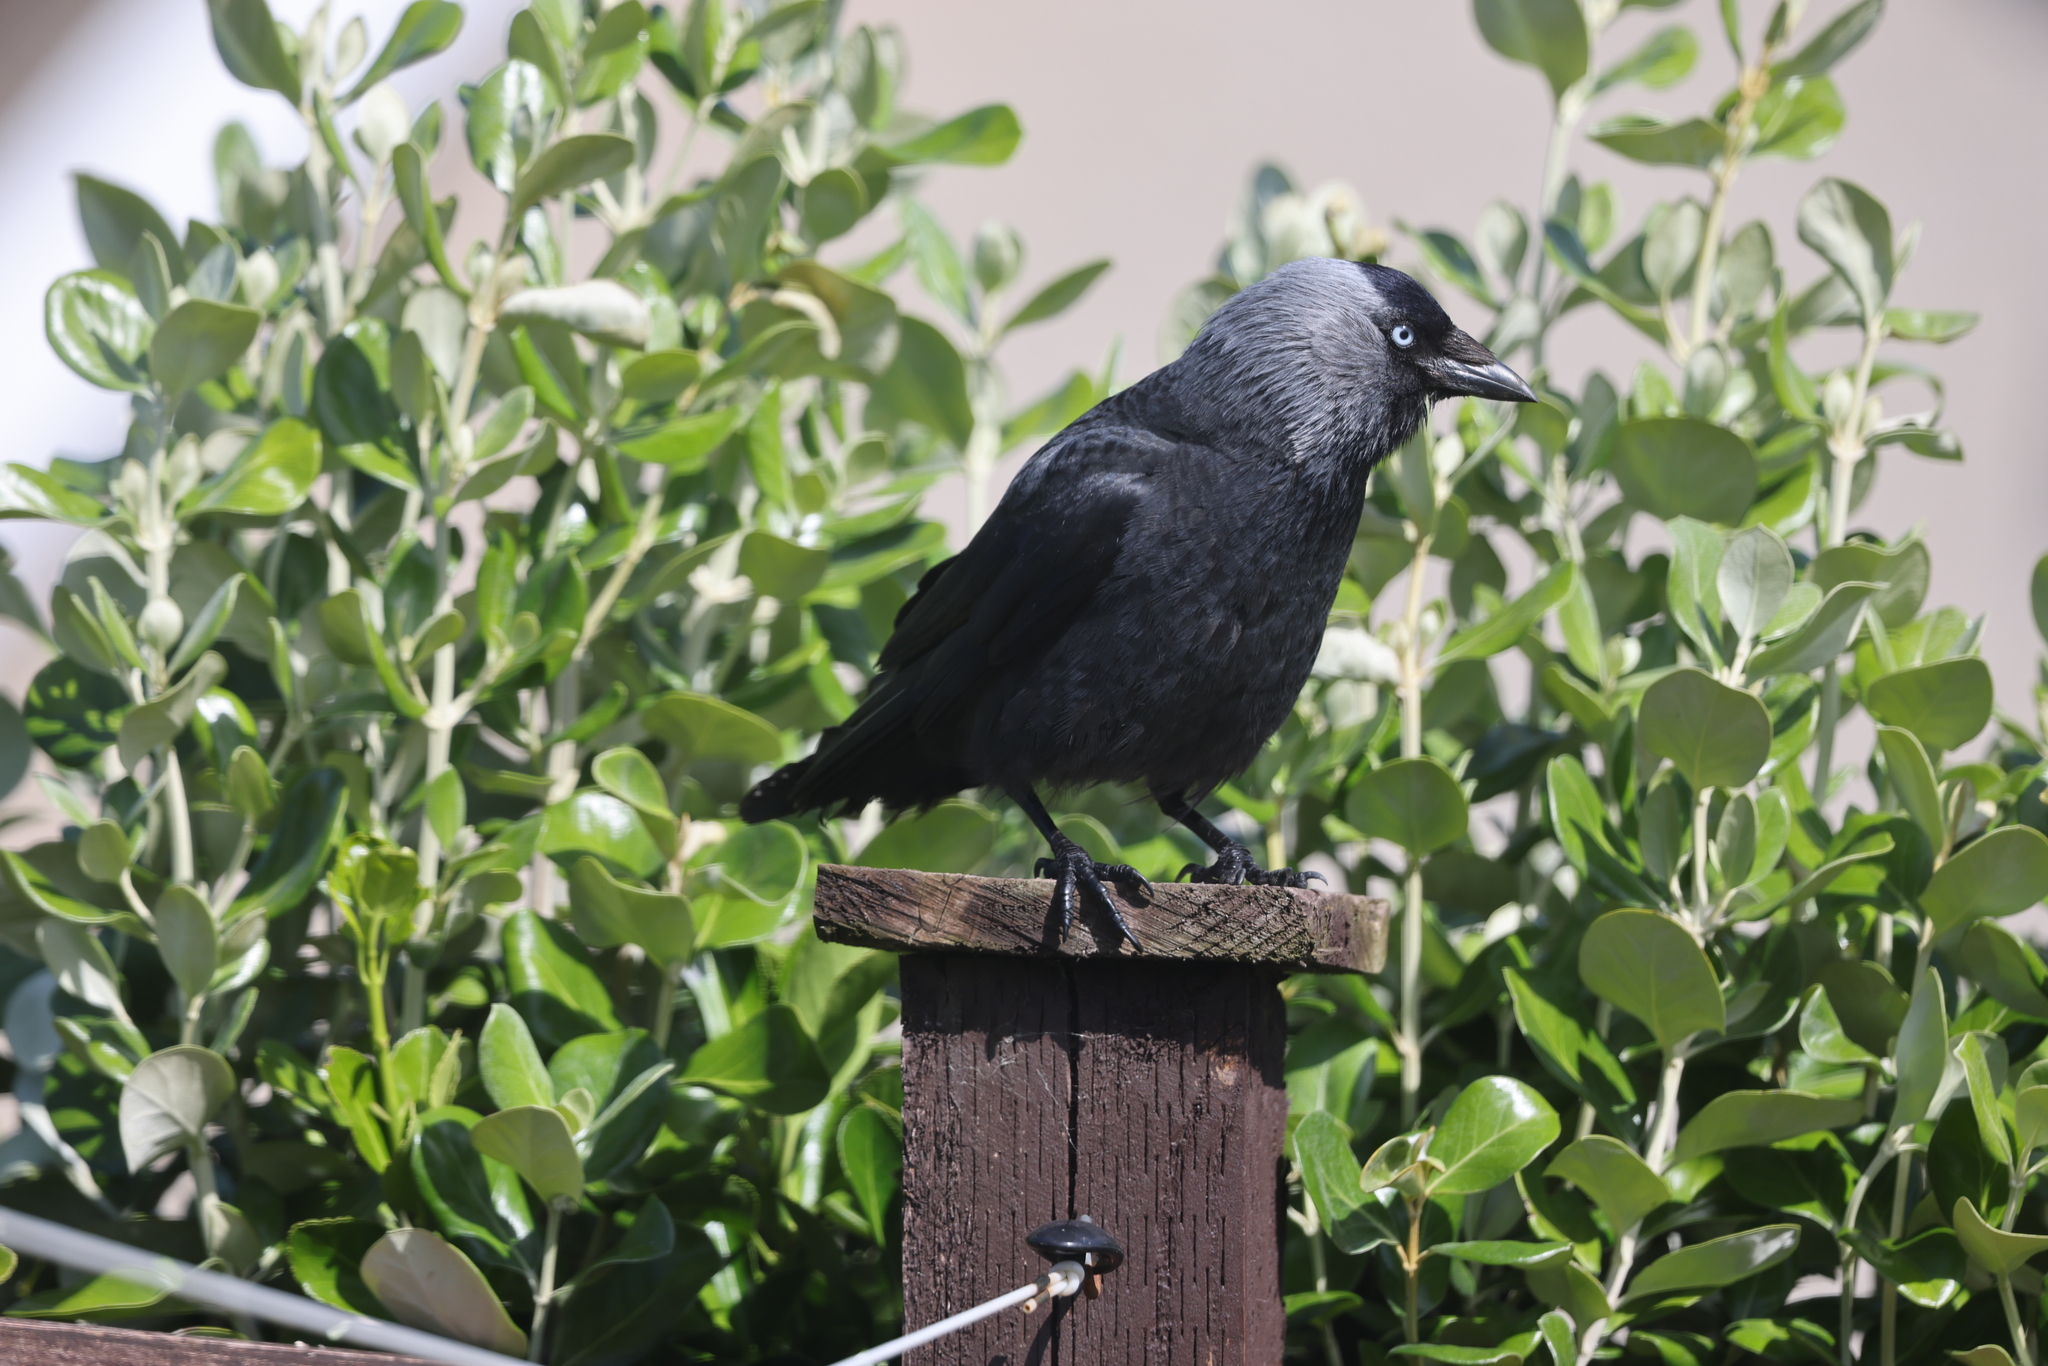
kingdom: Animalia
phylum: Chordata
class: Aves
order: Passeriformes
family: Corvidae
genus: Coloeus
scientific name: Coloeus monedula
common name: Western jackdaw
